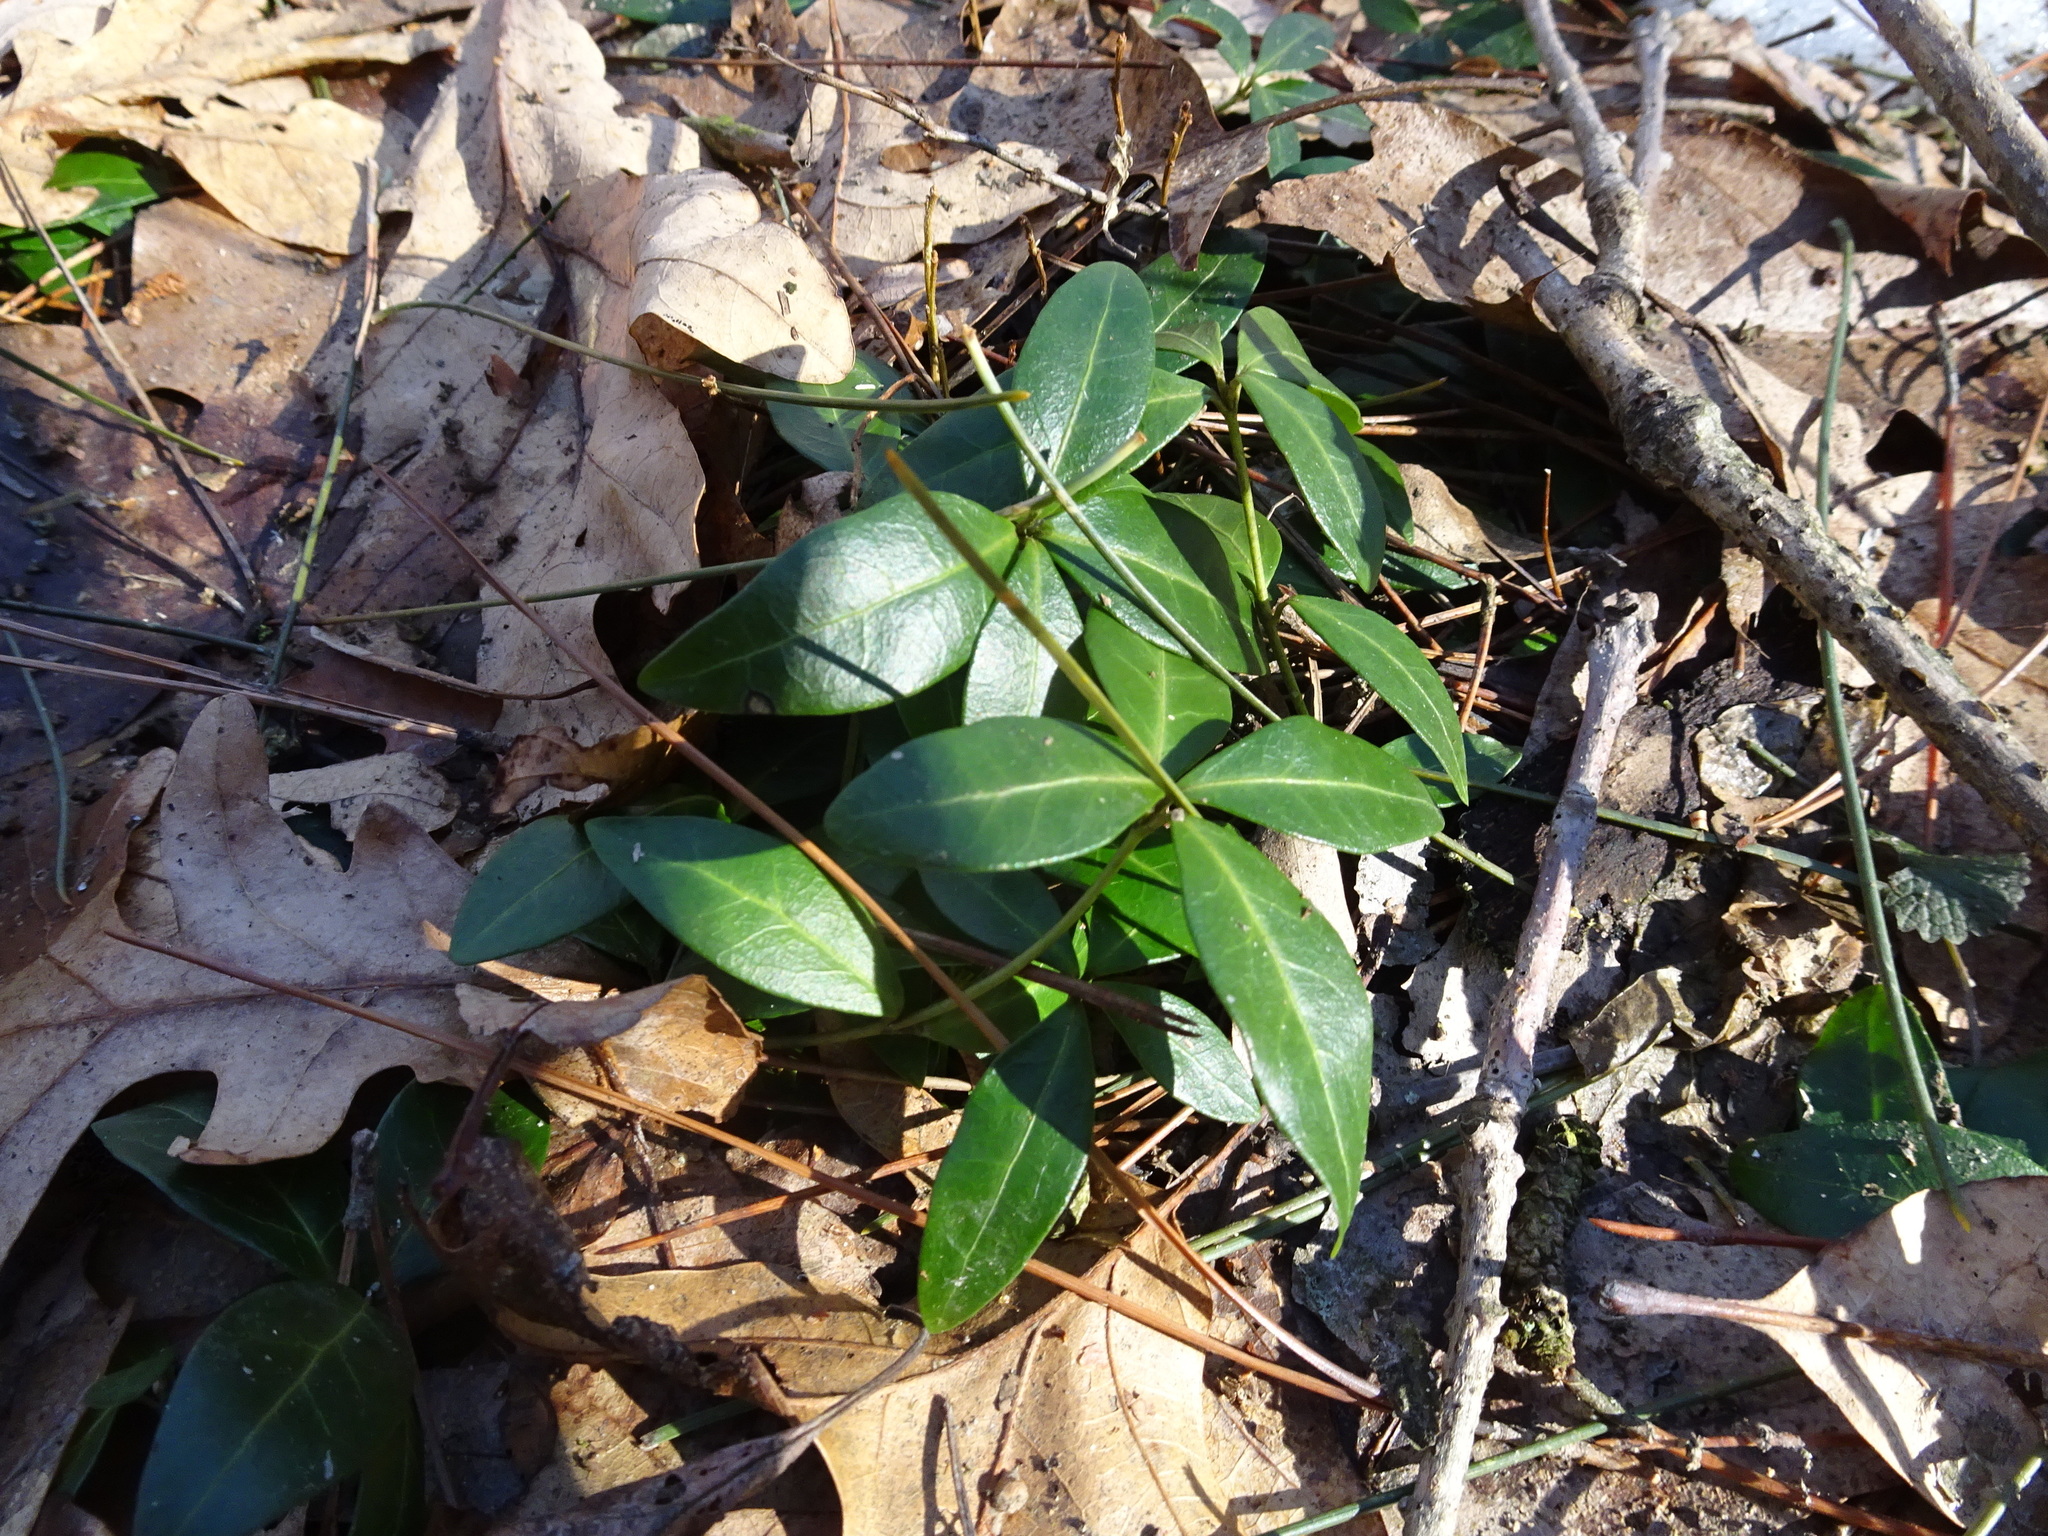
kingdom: Plantae
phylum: Tracheophyta
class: Magnoliopsida
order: Gentianales
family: Apocynaceae
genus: Vinca
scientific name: Vinca minor
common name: Lesser periwinkle
